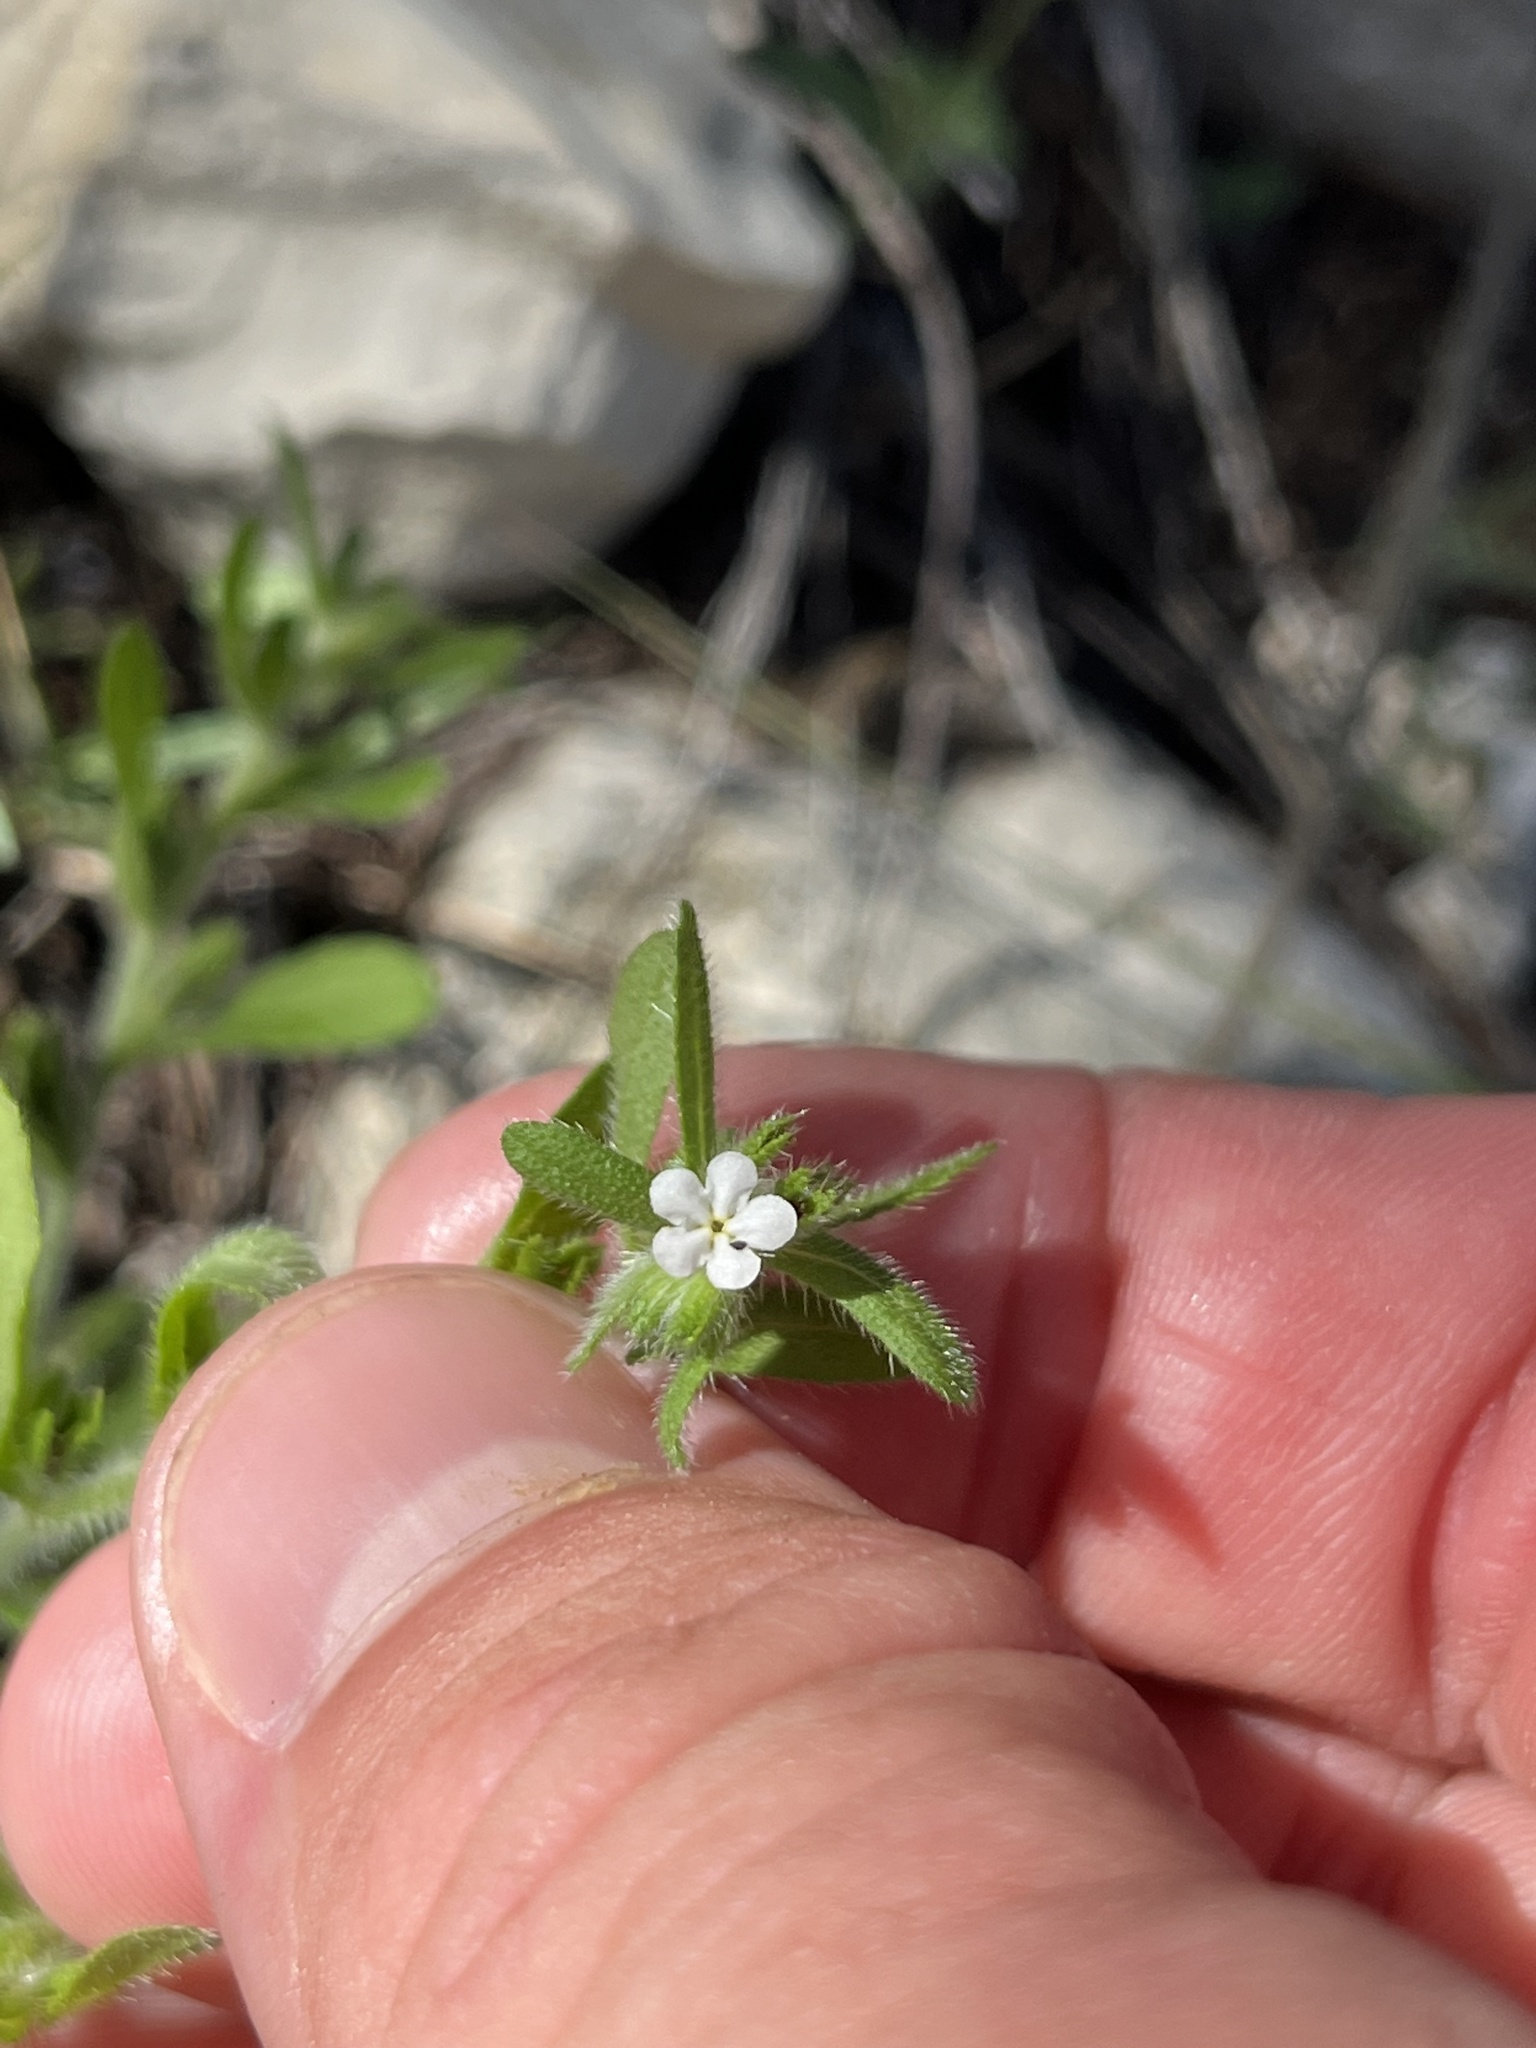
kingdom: Plantae
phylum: Tracheophyta
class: Magnoliopsida
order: Boraginales
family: Boraginaceae
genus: Lithospermum
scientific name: Lithospermum matamorense
